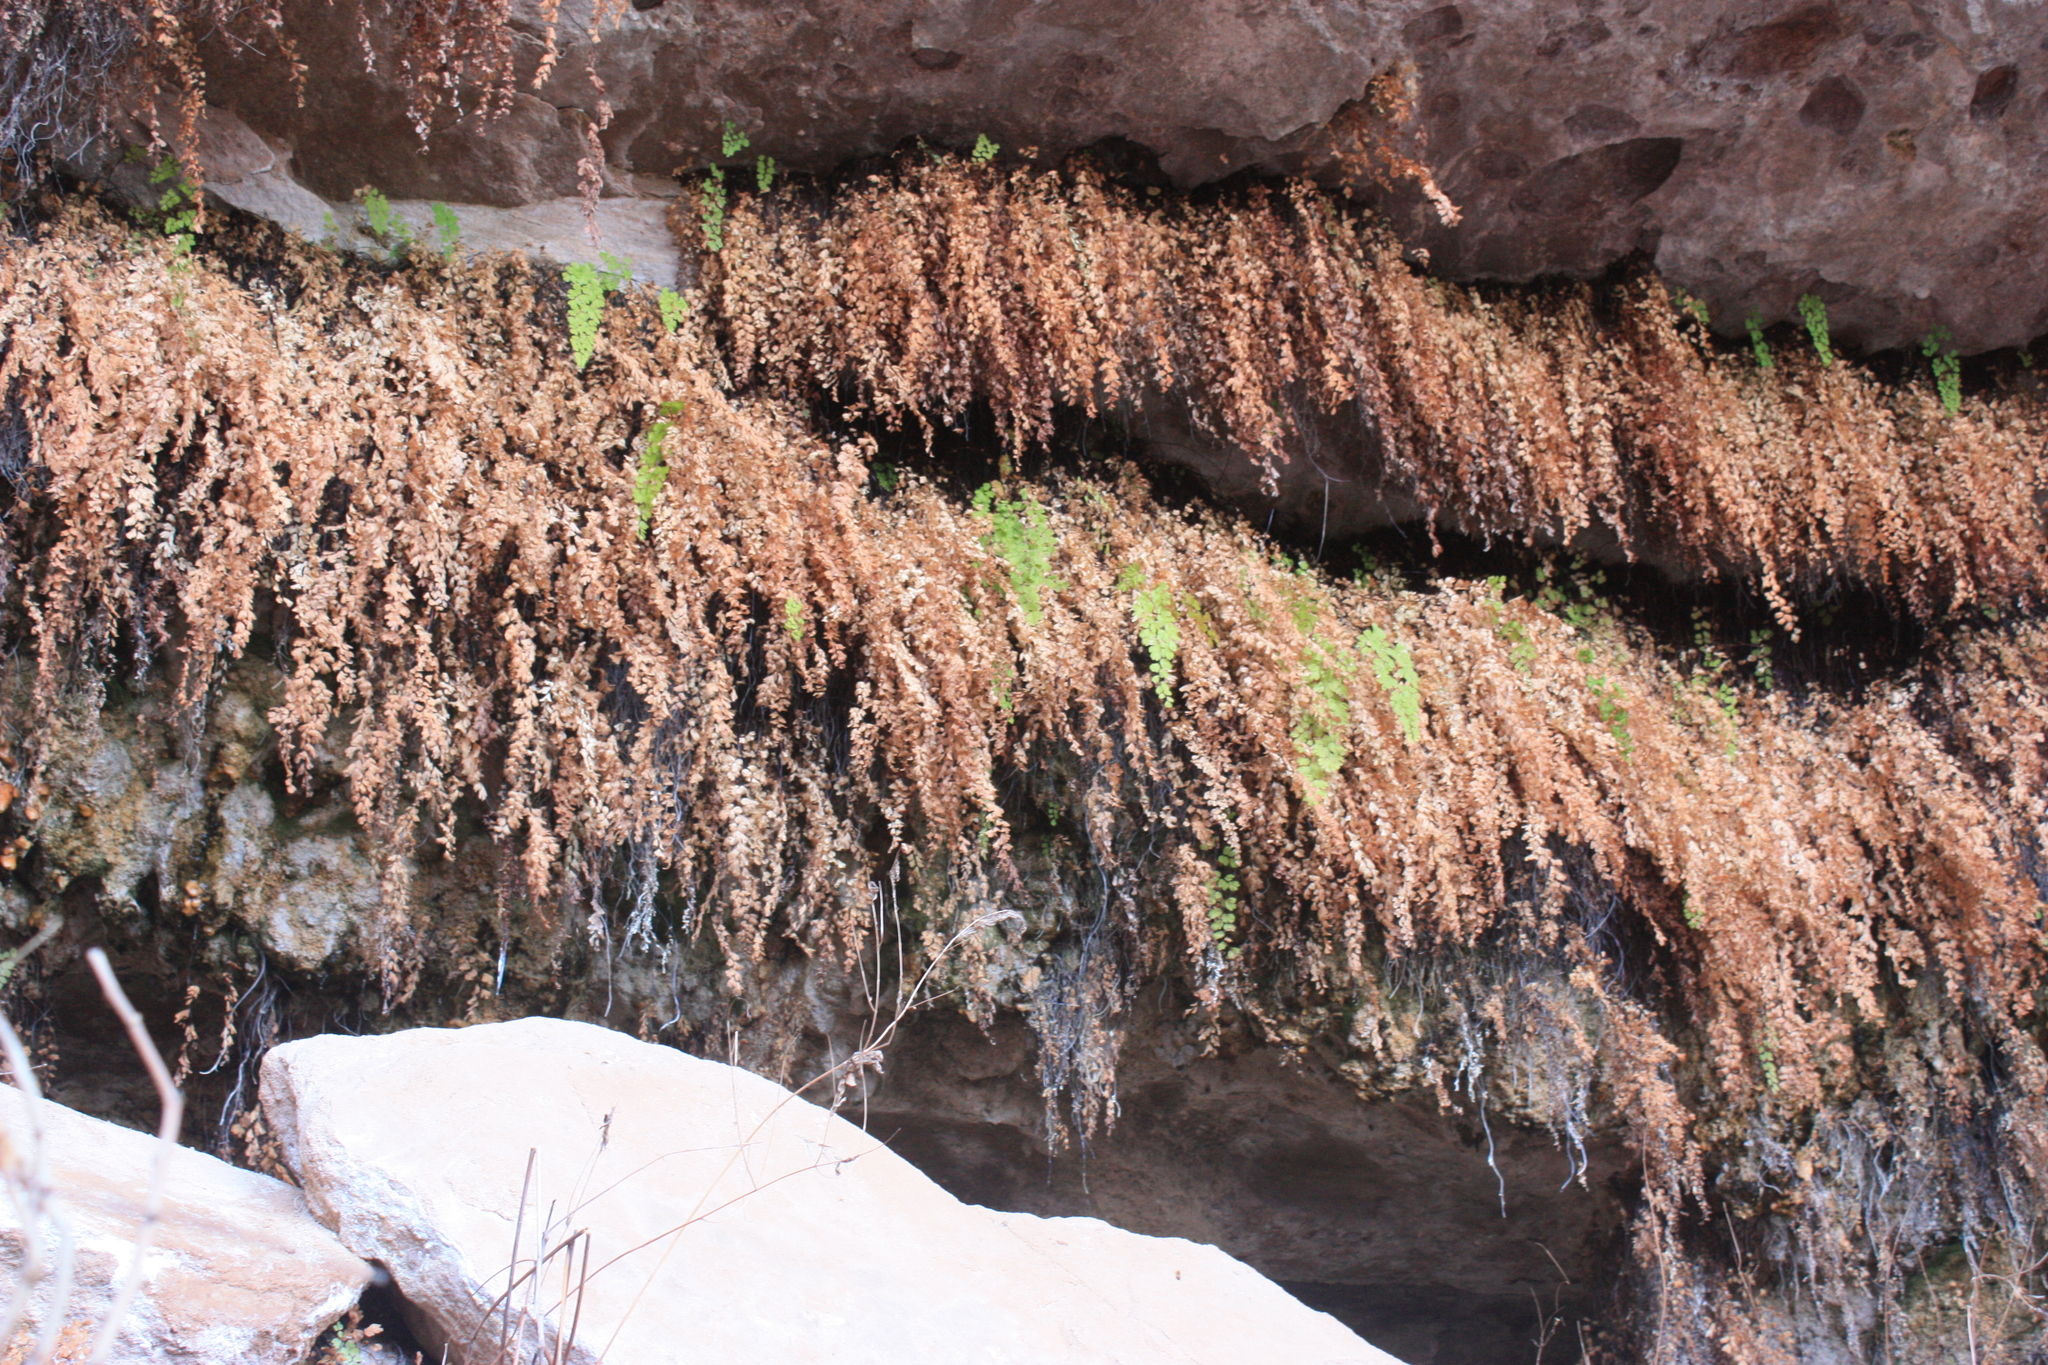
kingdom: Plantae
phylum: Tracheophyta
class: Polypodiopsida
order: Polypodiales
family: Pteridaceae
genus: Adiantum
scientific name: Adiantum capillus-veneris
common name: Maidenhair fern
